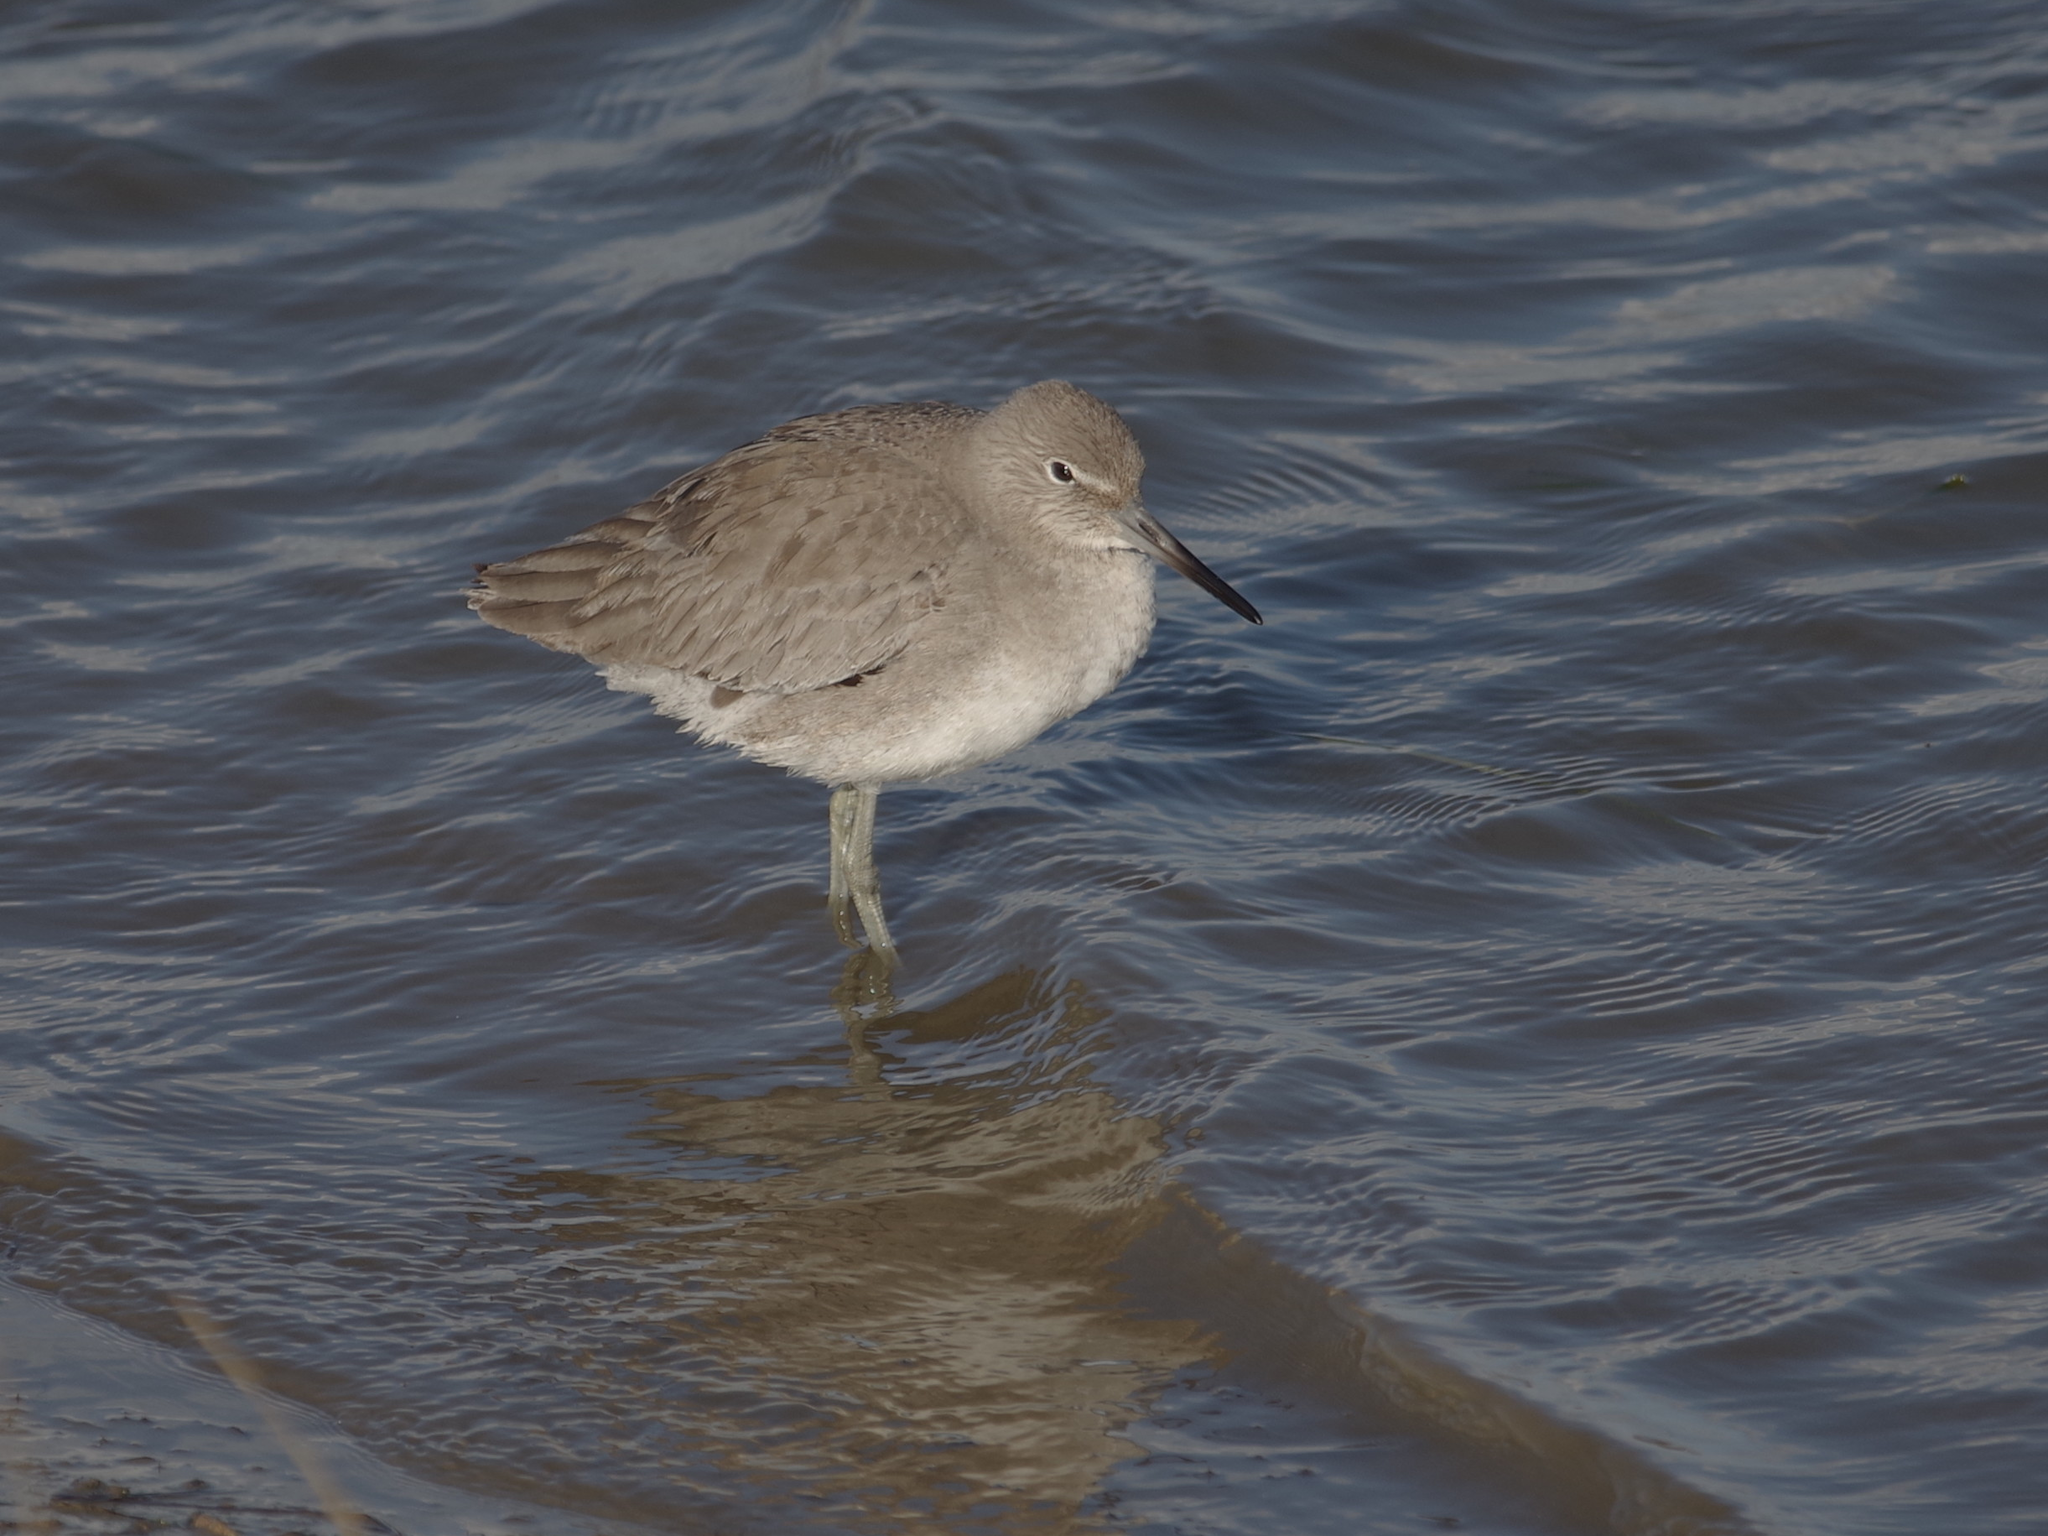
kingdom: Animalia
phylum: Chordata
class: Aves
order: Charadriiformes
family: Scolopacidae
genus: Tringa
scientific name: Tringa semipalmata
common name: Willet
